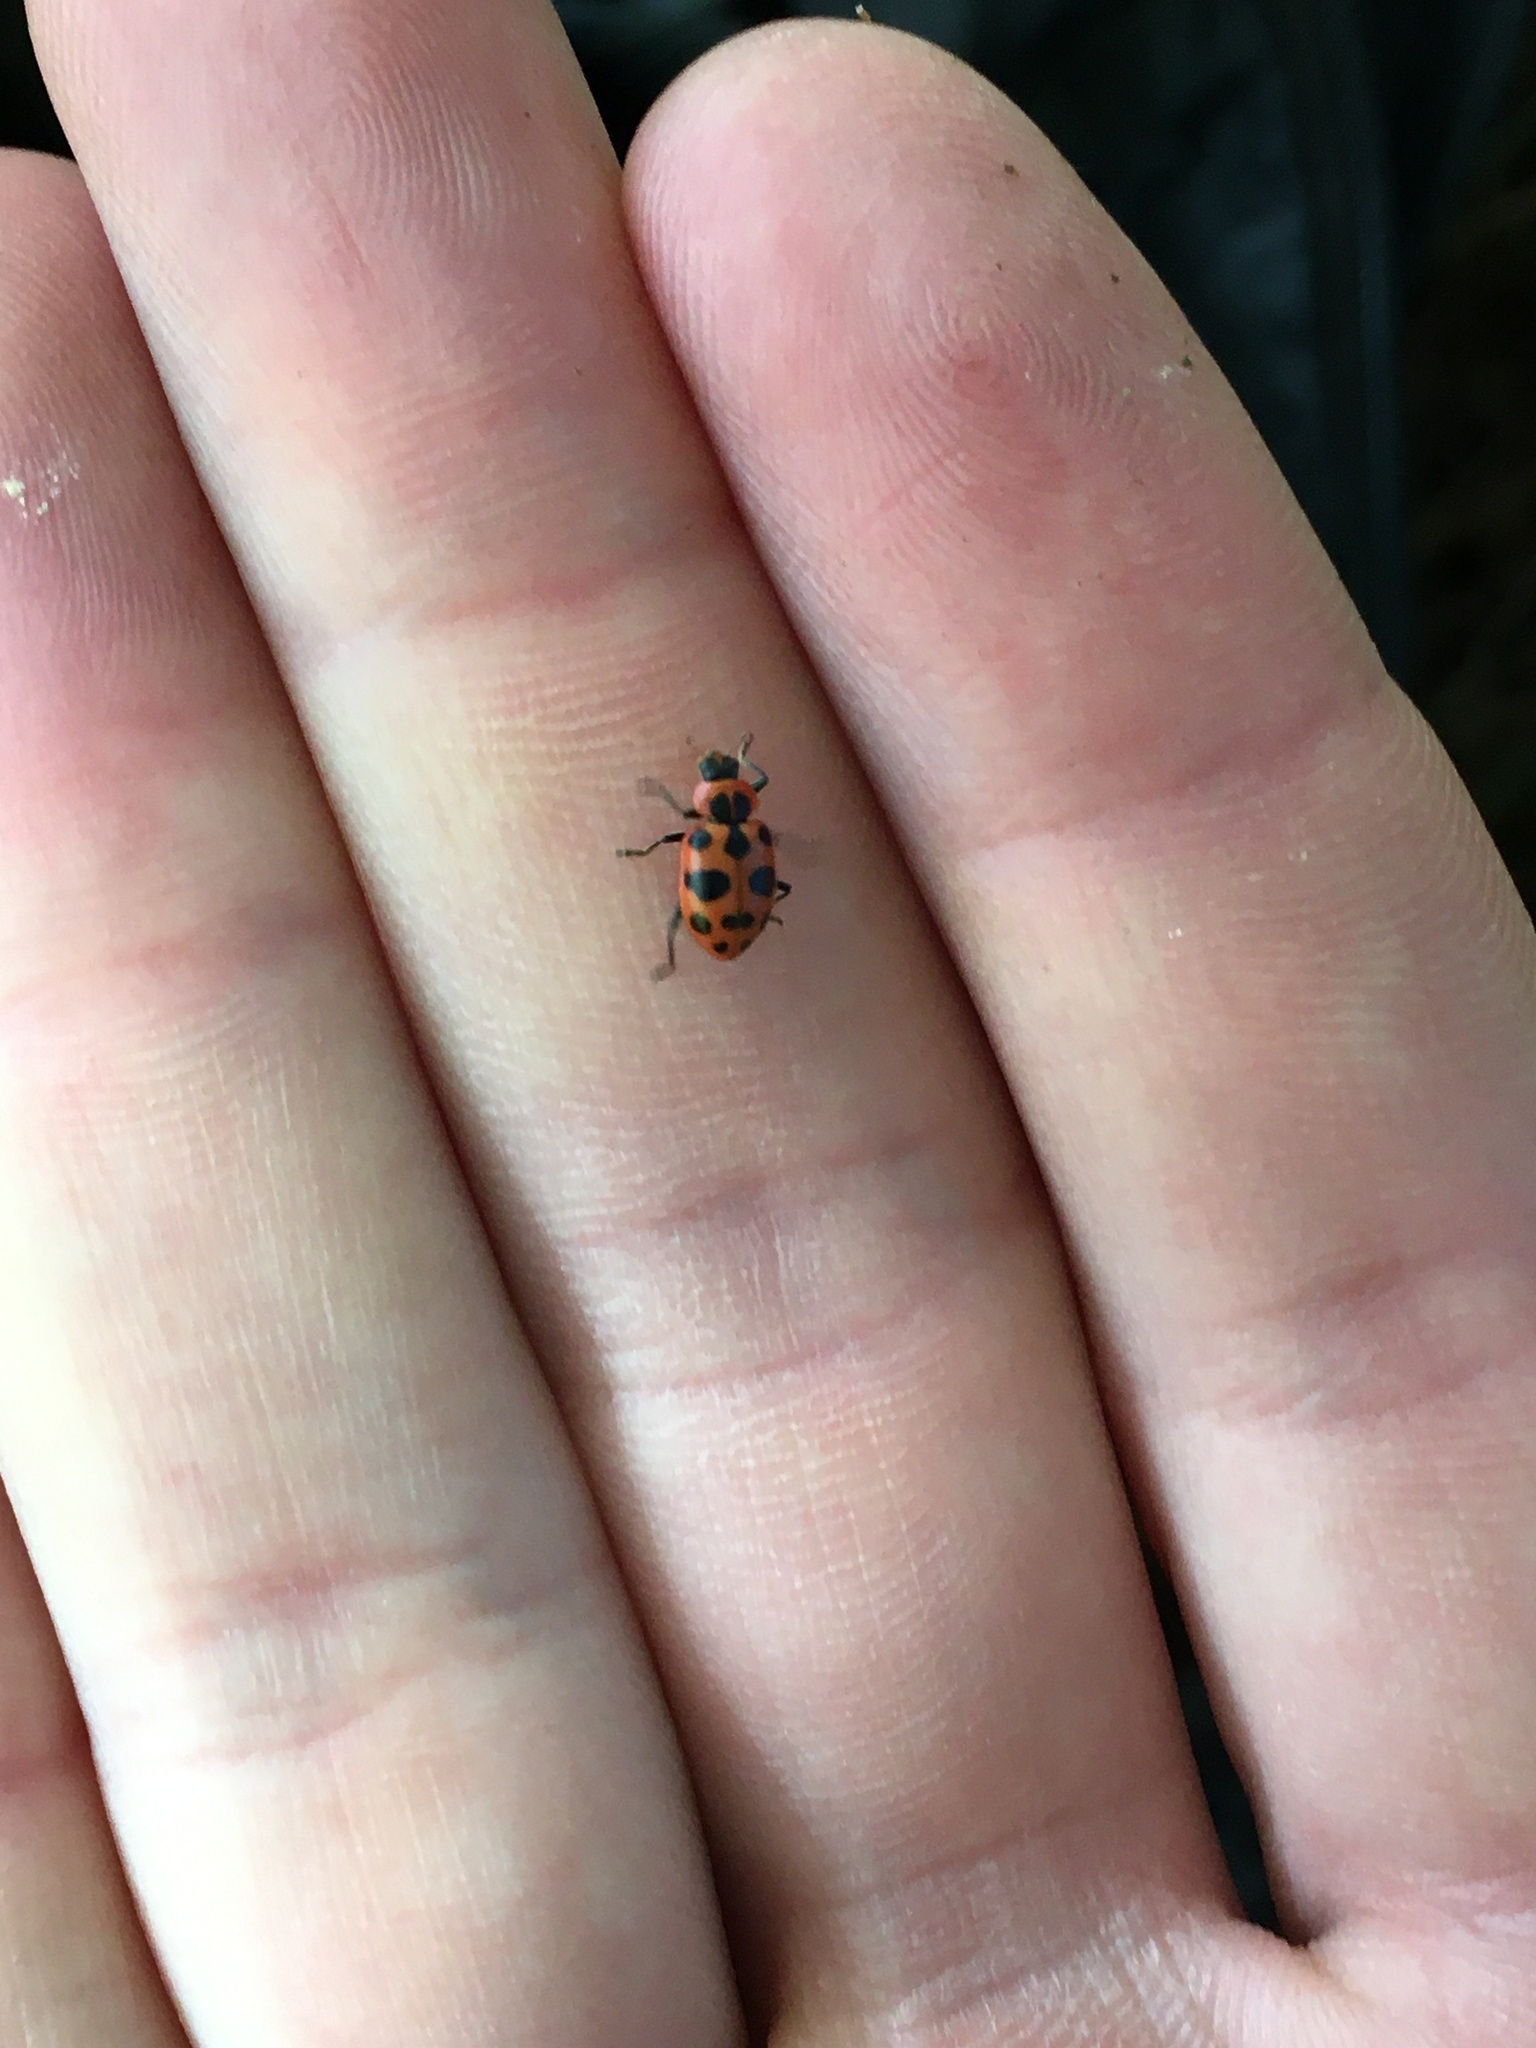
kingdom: Animalia
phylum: Arthropoda
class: Insecta
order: Coleoptera
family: Coccinellidae
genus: Coleomegilla
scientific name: Coleomegilla maculata
